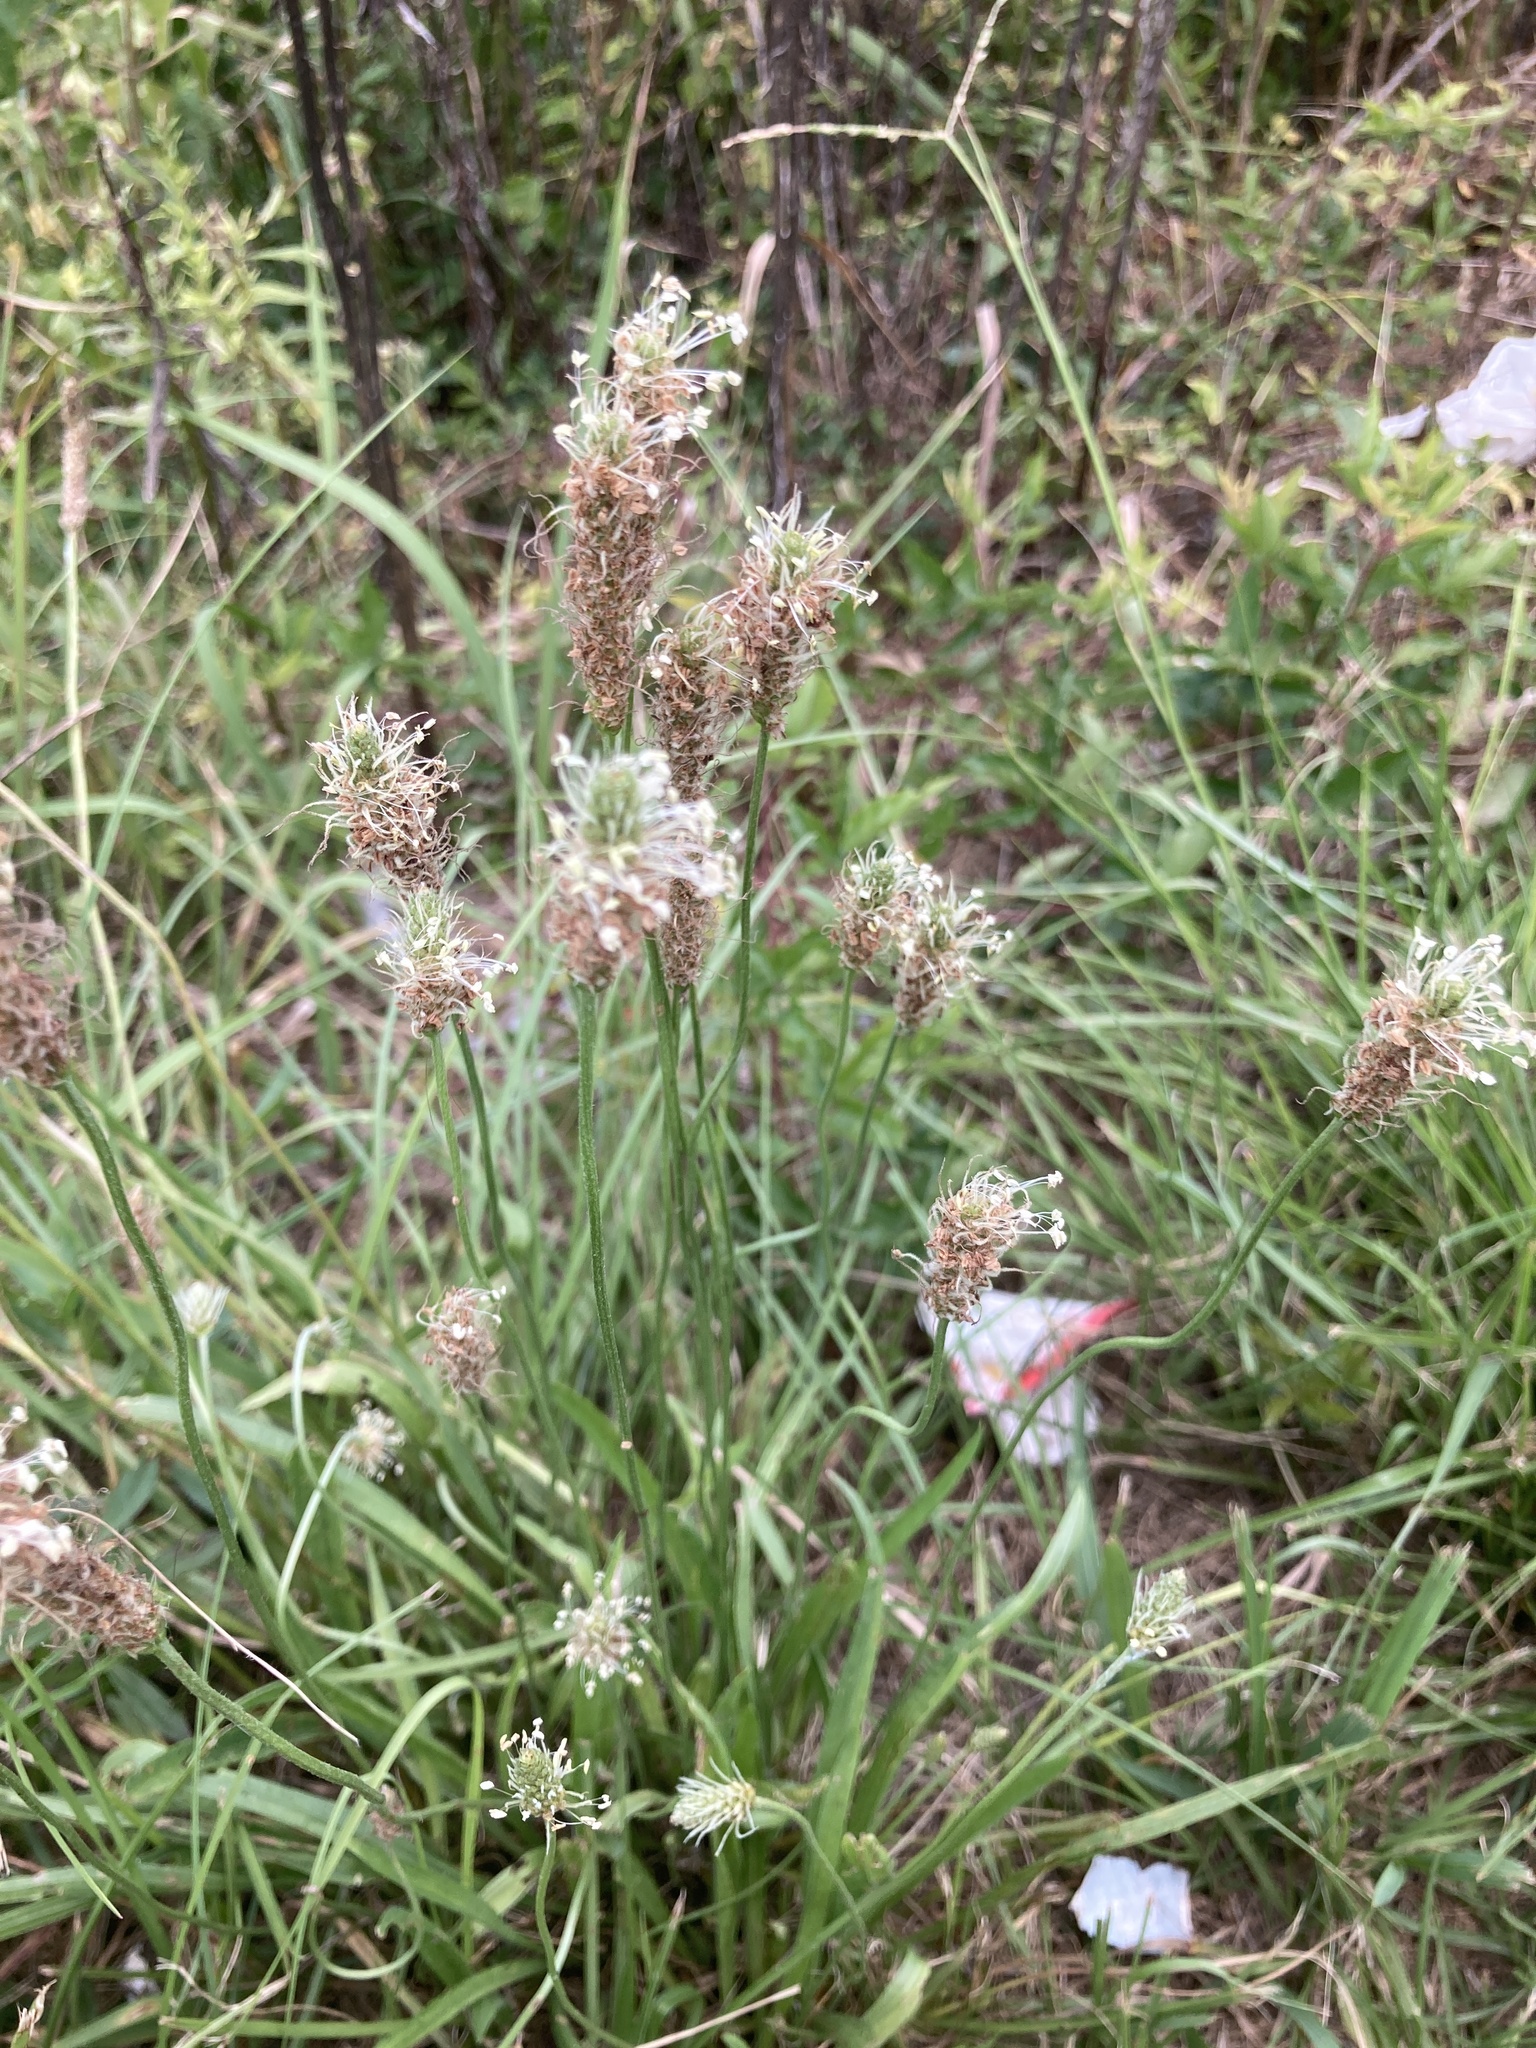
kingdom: Plantae
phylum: Tracheophyta
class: Magnoliopsida
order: Lamiales
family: Plantaginaceae
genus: Plantago
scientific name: Plantago lanceolata
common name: Ribwort plantain
